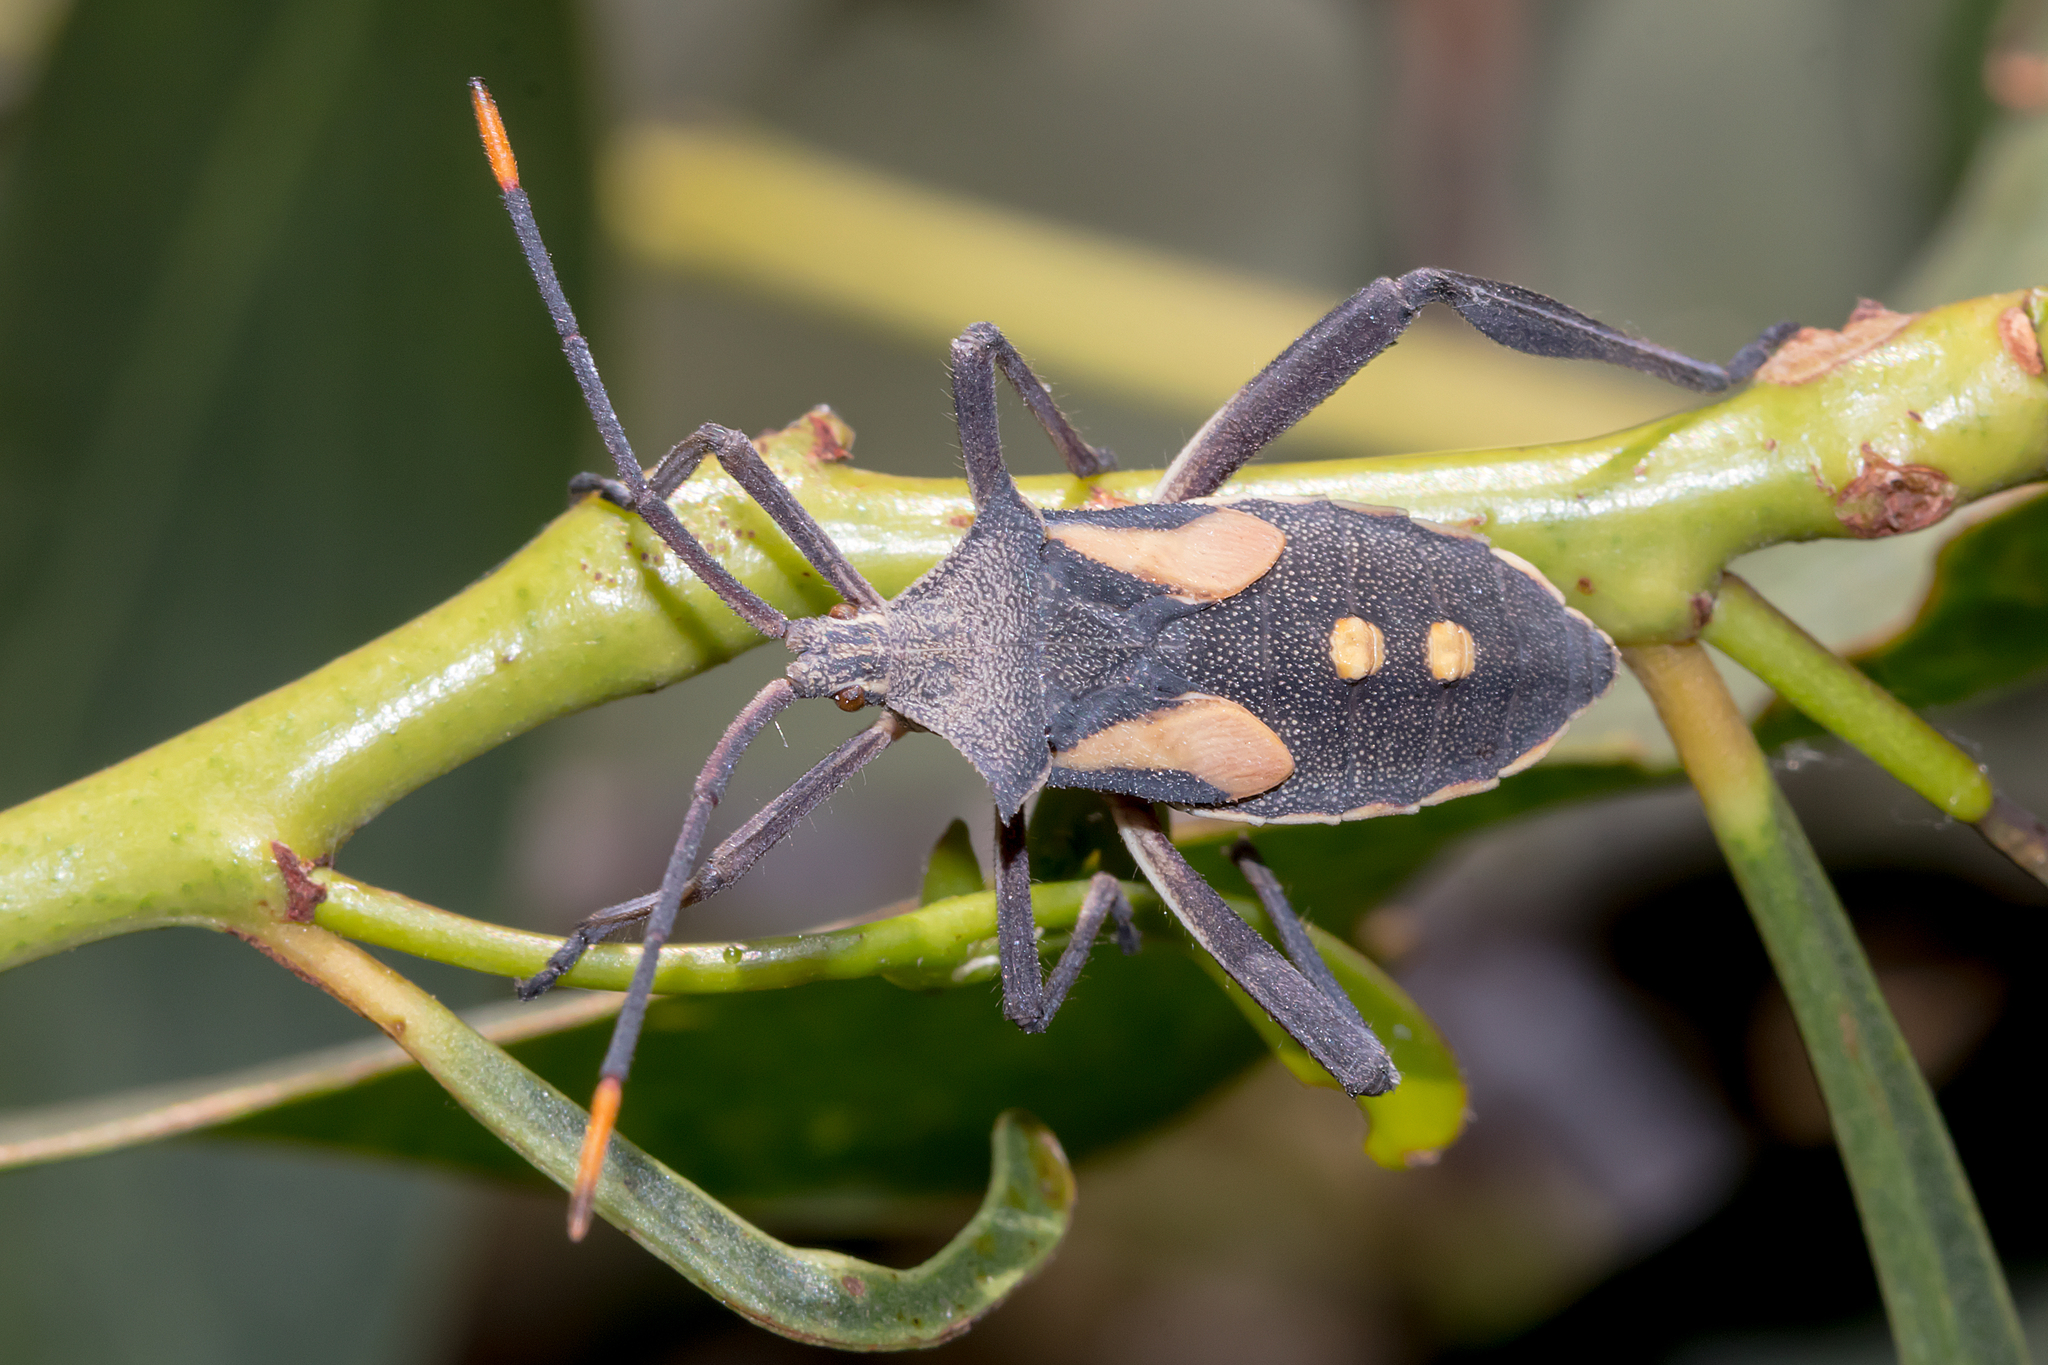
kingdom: Animalia
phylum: Arthropoda
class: Insecta
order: Hemiptera
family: Coreidae
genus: Mictis
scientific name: Mictis profana
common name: Crusader bug
